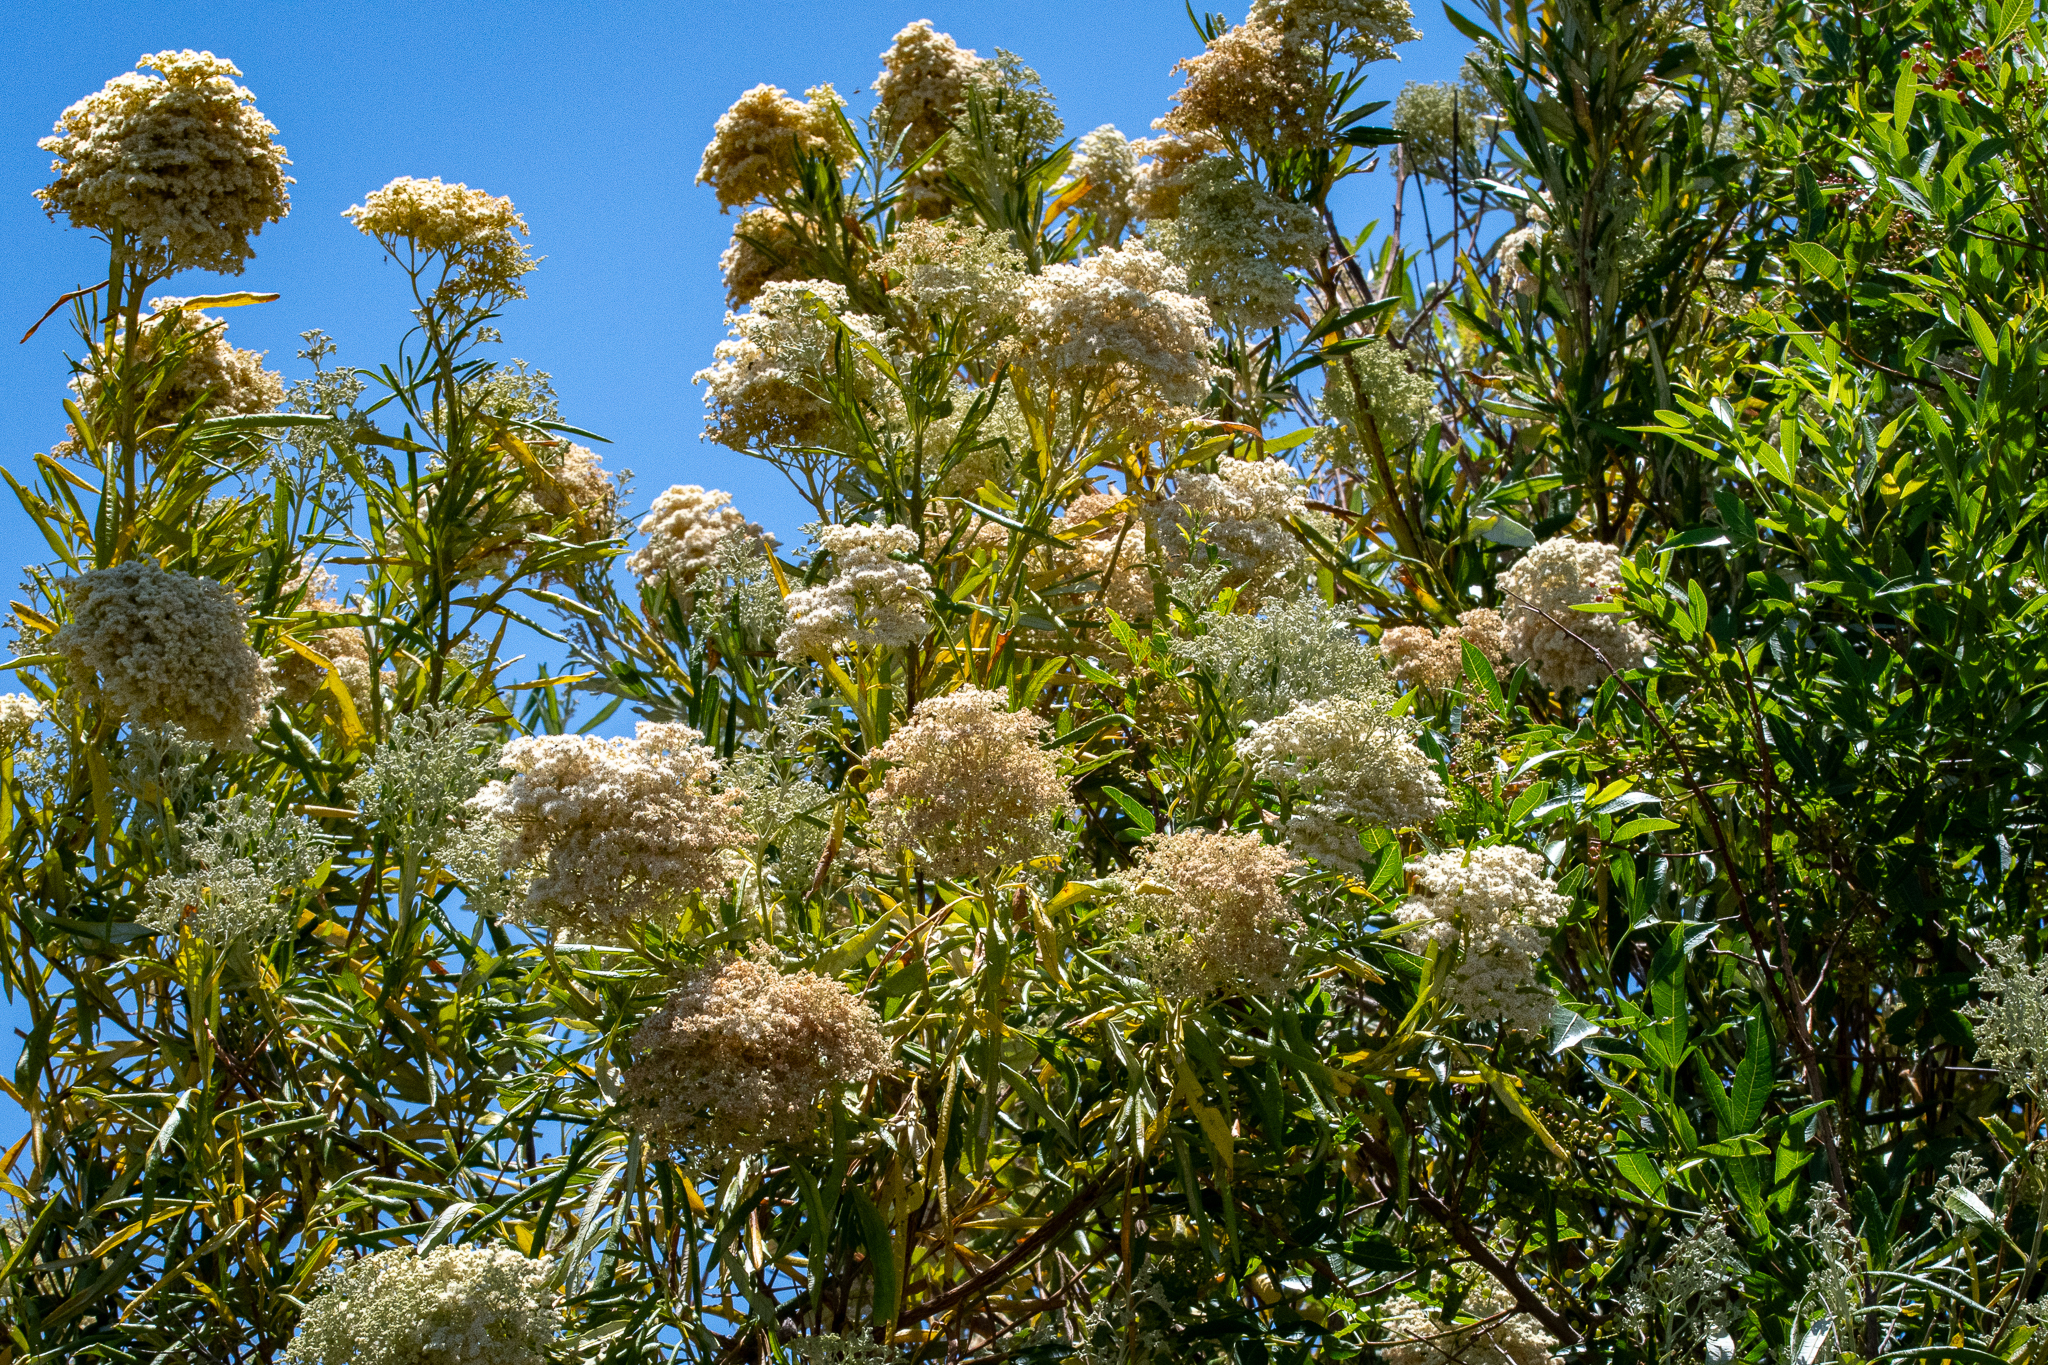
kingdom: Plantae
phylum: Tracheophyta
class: Magnoliopsida
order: Lamiales
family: Scrophulariaceae
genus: Buddleja
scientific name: Buddleja saligna
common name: False olive
